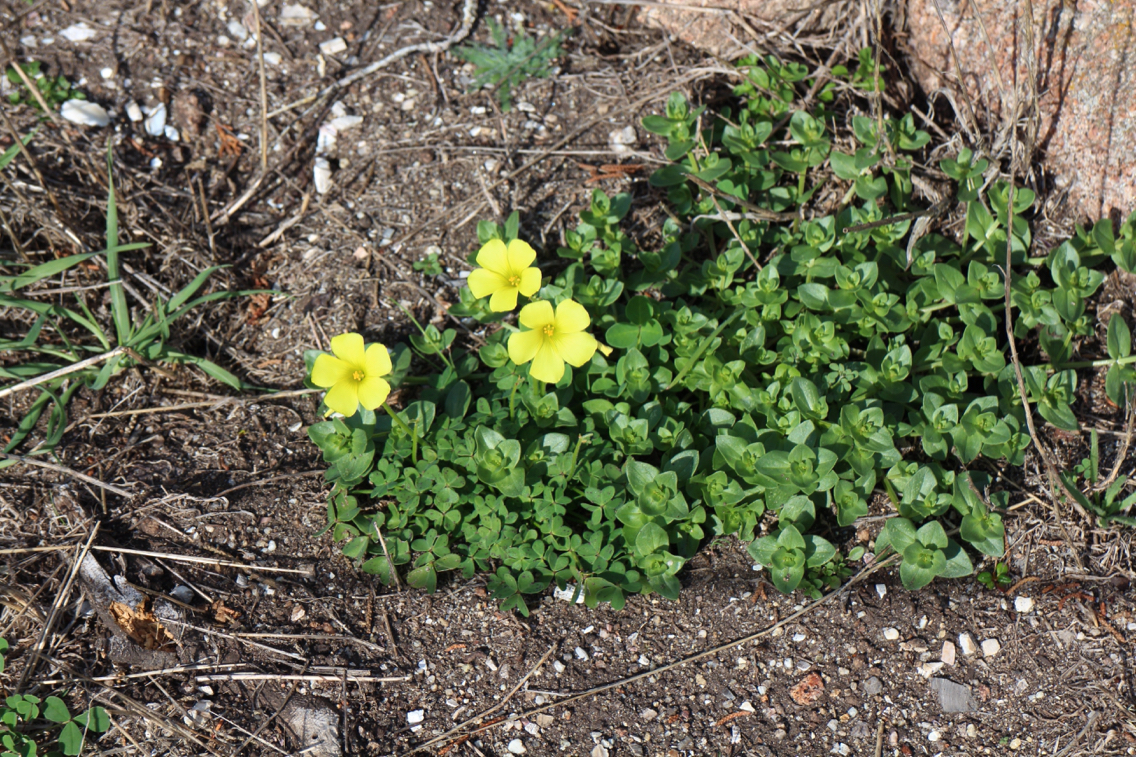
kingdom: Plantae
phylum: Tracheophyta
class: Magnoliopsida
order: Oxalidales
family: Oxalidaceae
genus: Oxalis
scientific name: Oxalis pes-caprae
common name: Bermuda-buttercup
